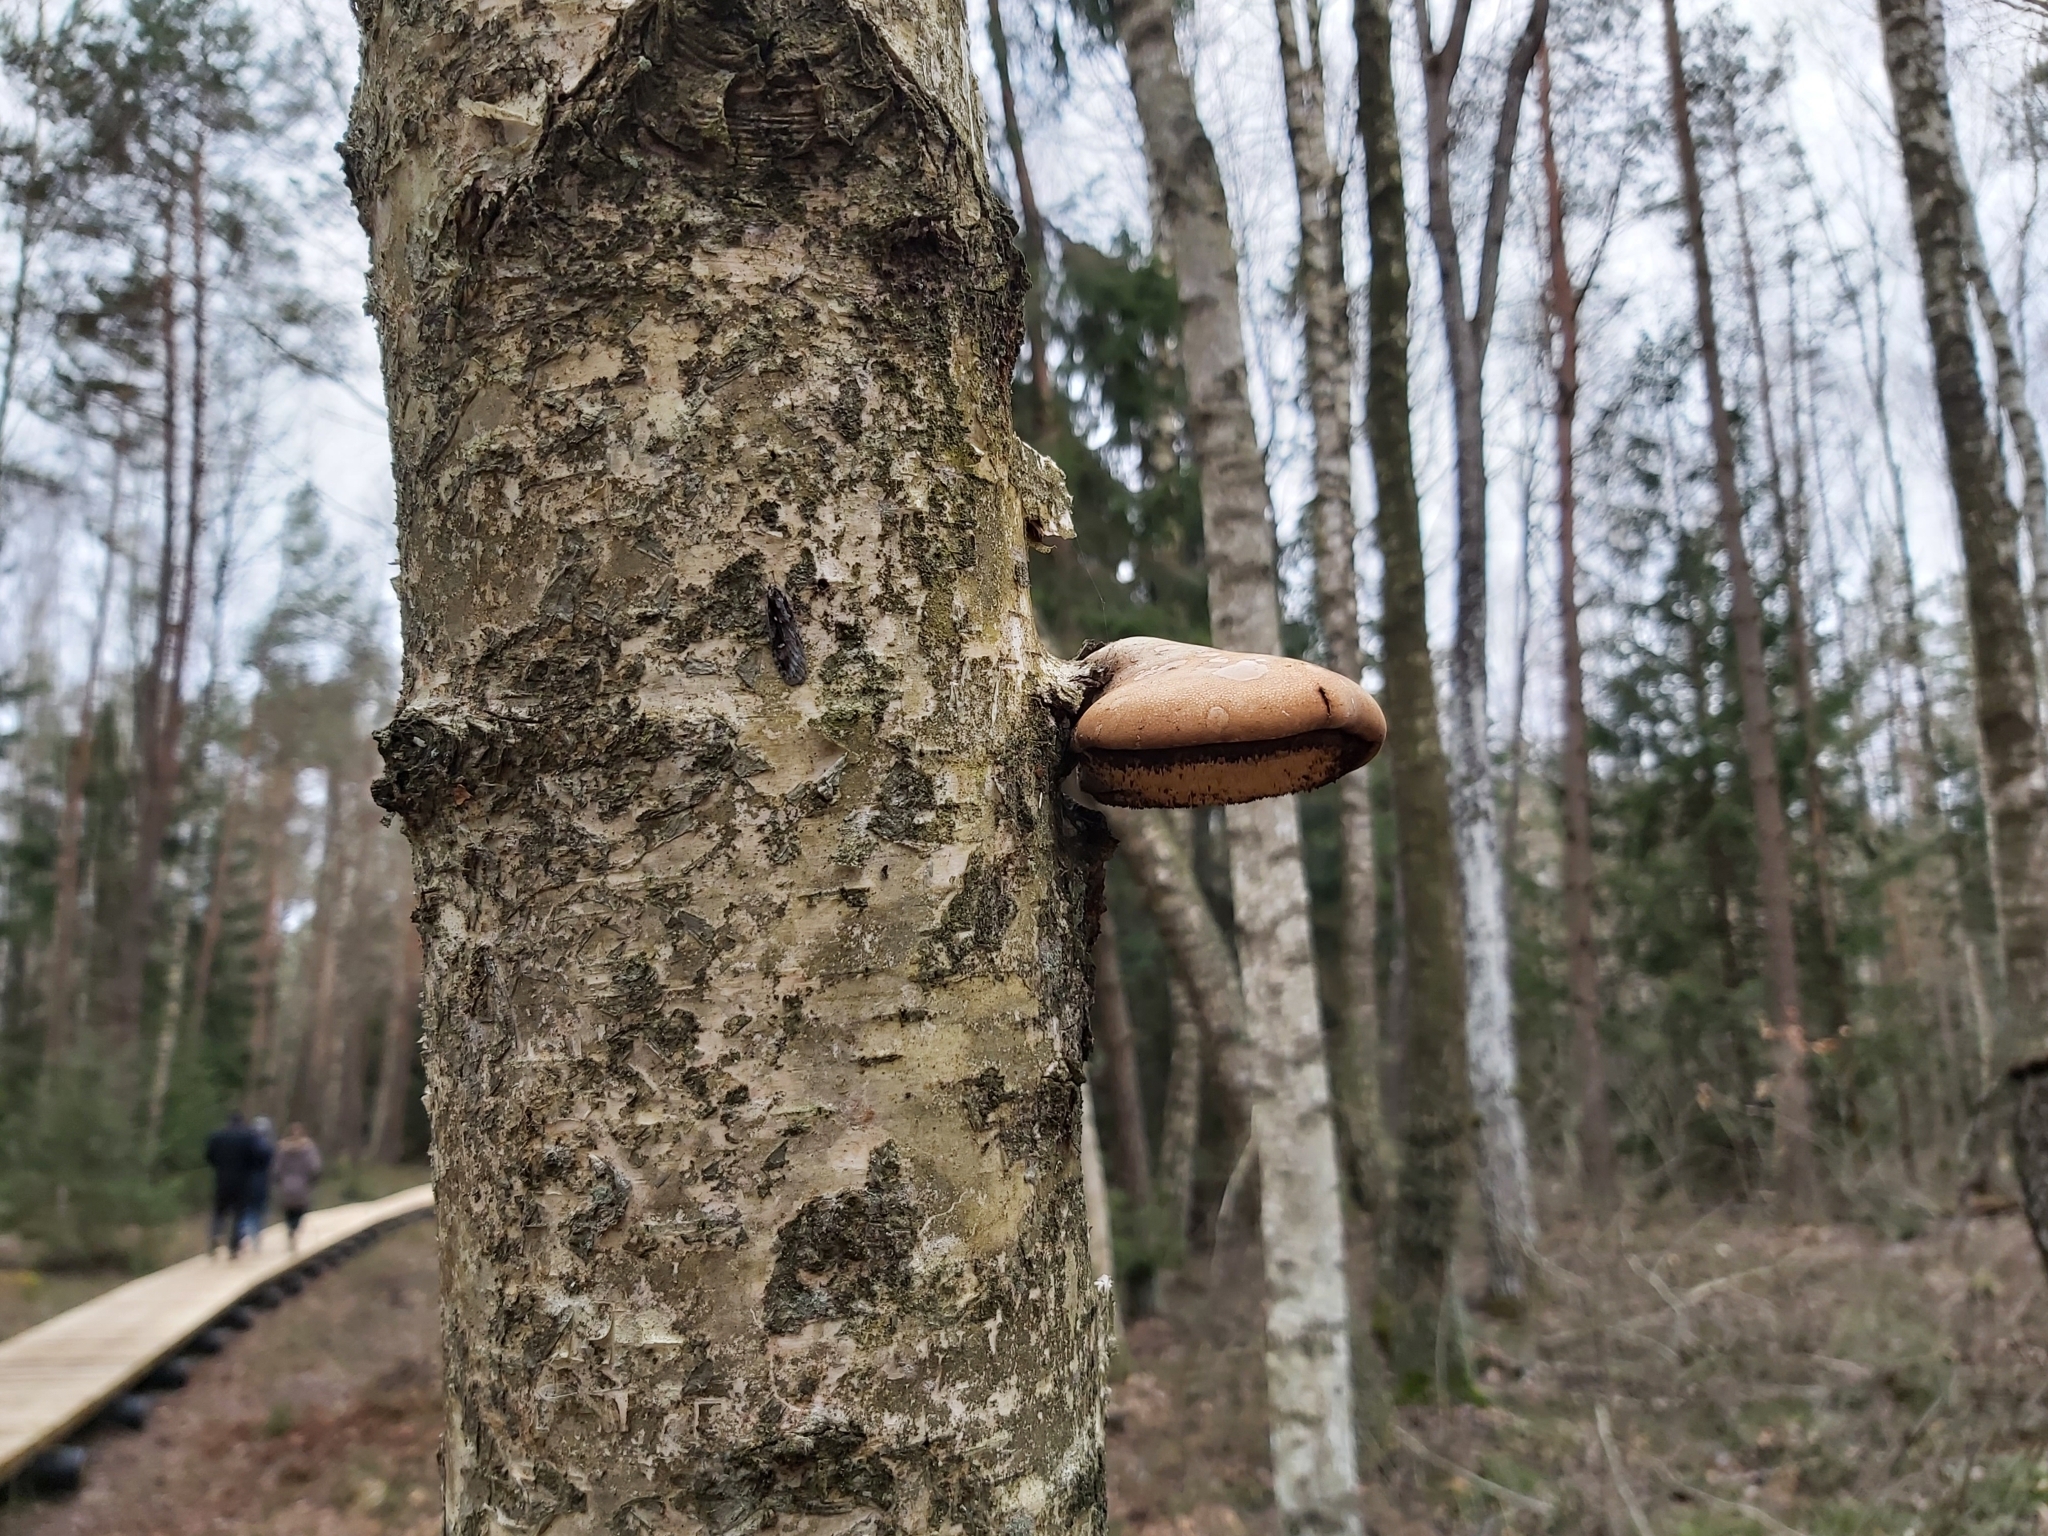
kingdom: Fungi
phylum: Basidiomycota
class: Agaricomycetes
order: Polyporales
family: Fomitopsidaceae
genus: Fomitopsis
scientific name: Fomitopsis betulina
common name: Birch polypore
